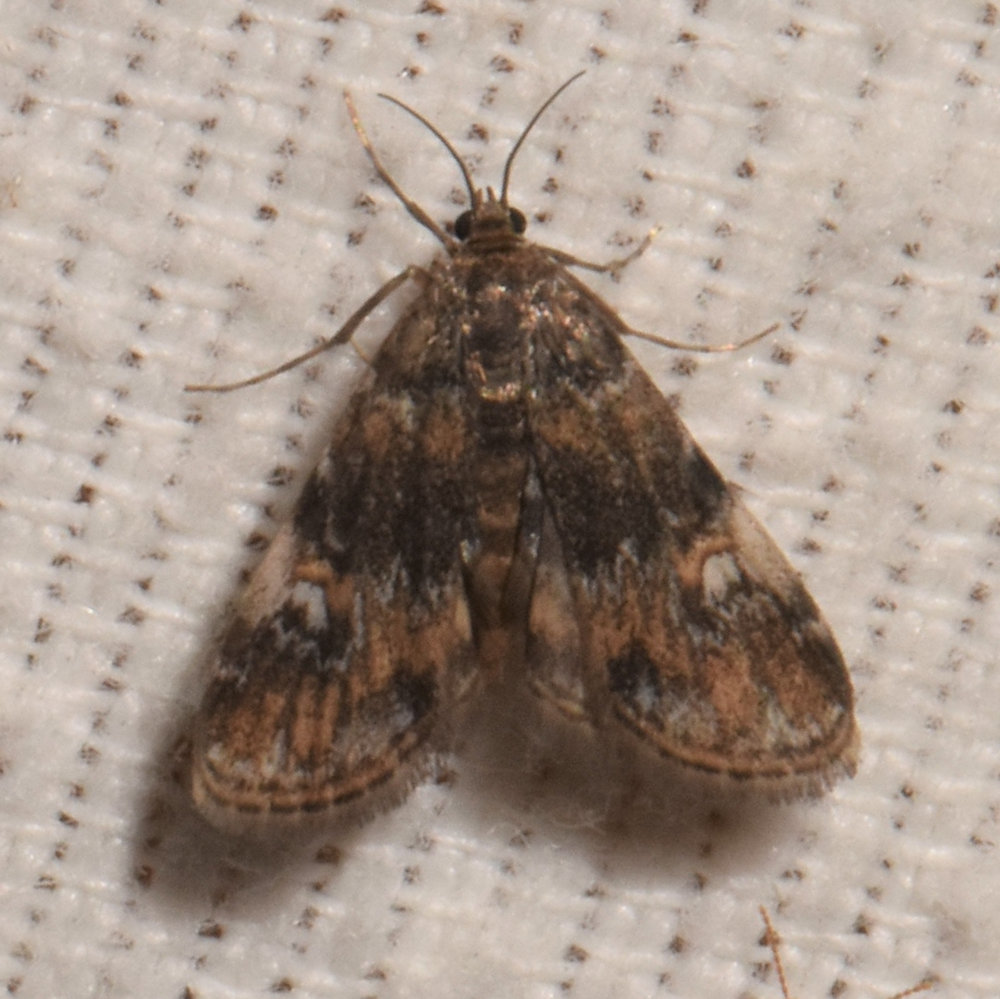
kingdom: Animalia
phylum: Arthropoda
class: Insecta
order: Lepidoptera
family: Crambidae
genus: Elophila
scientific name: Elophila obliteralis
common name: Waterlily leafcutter moth
